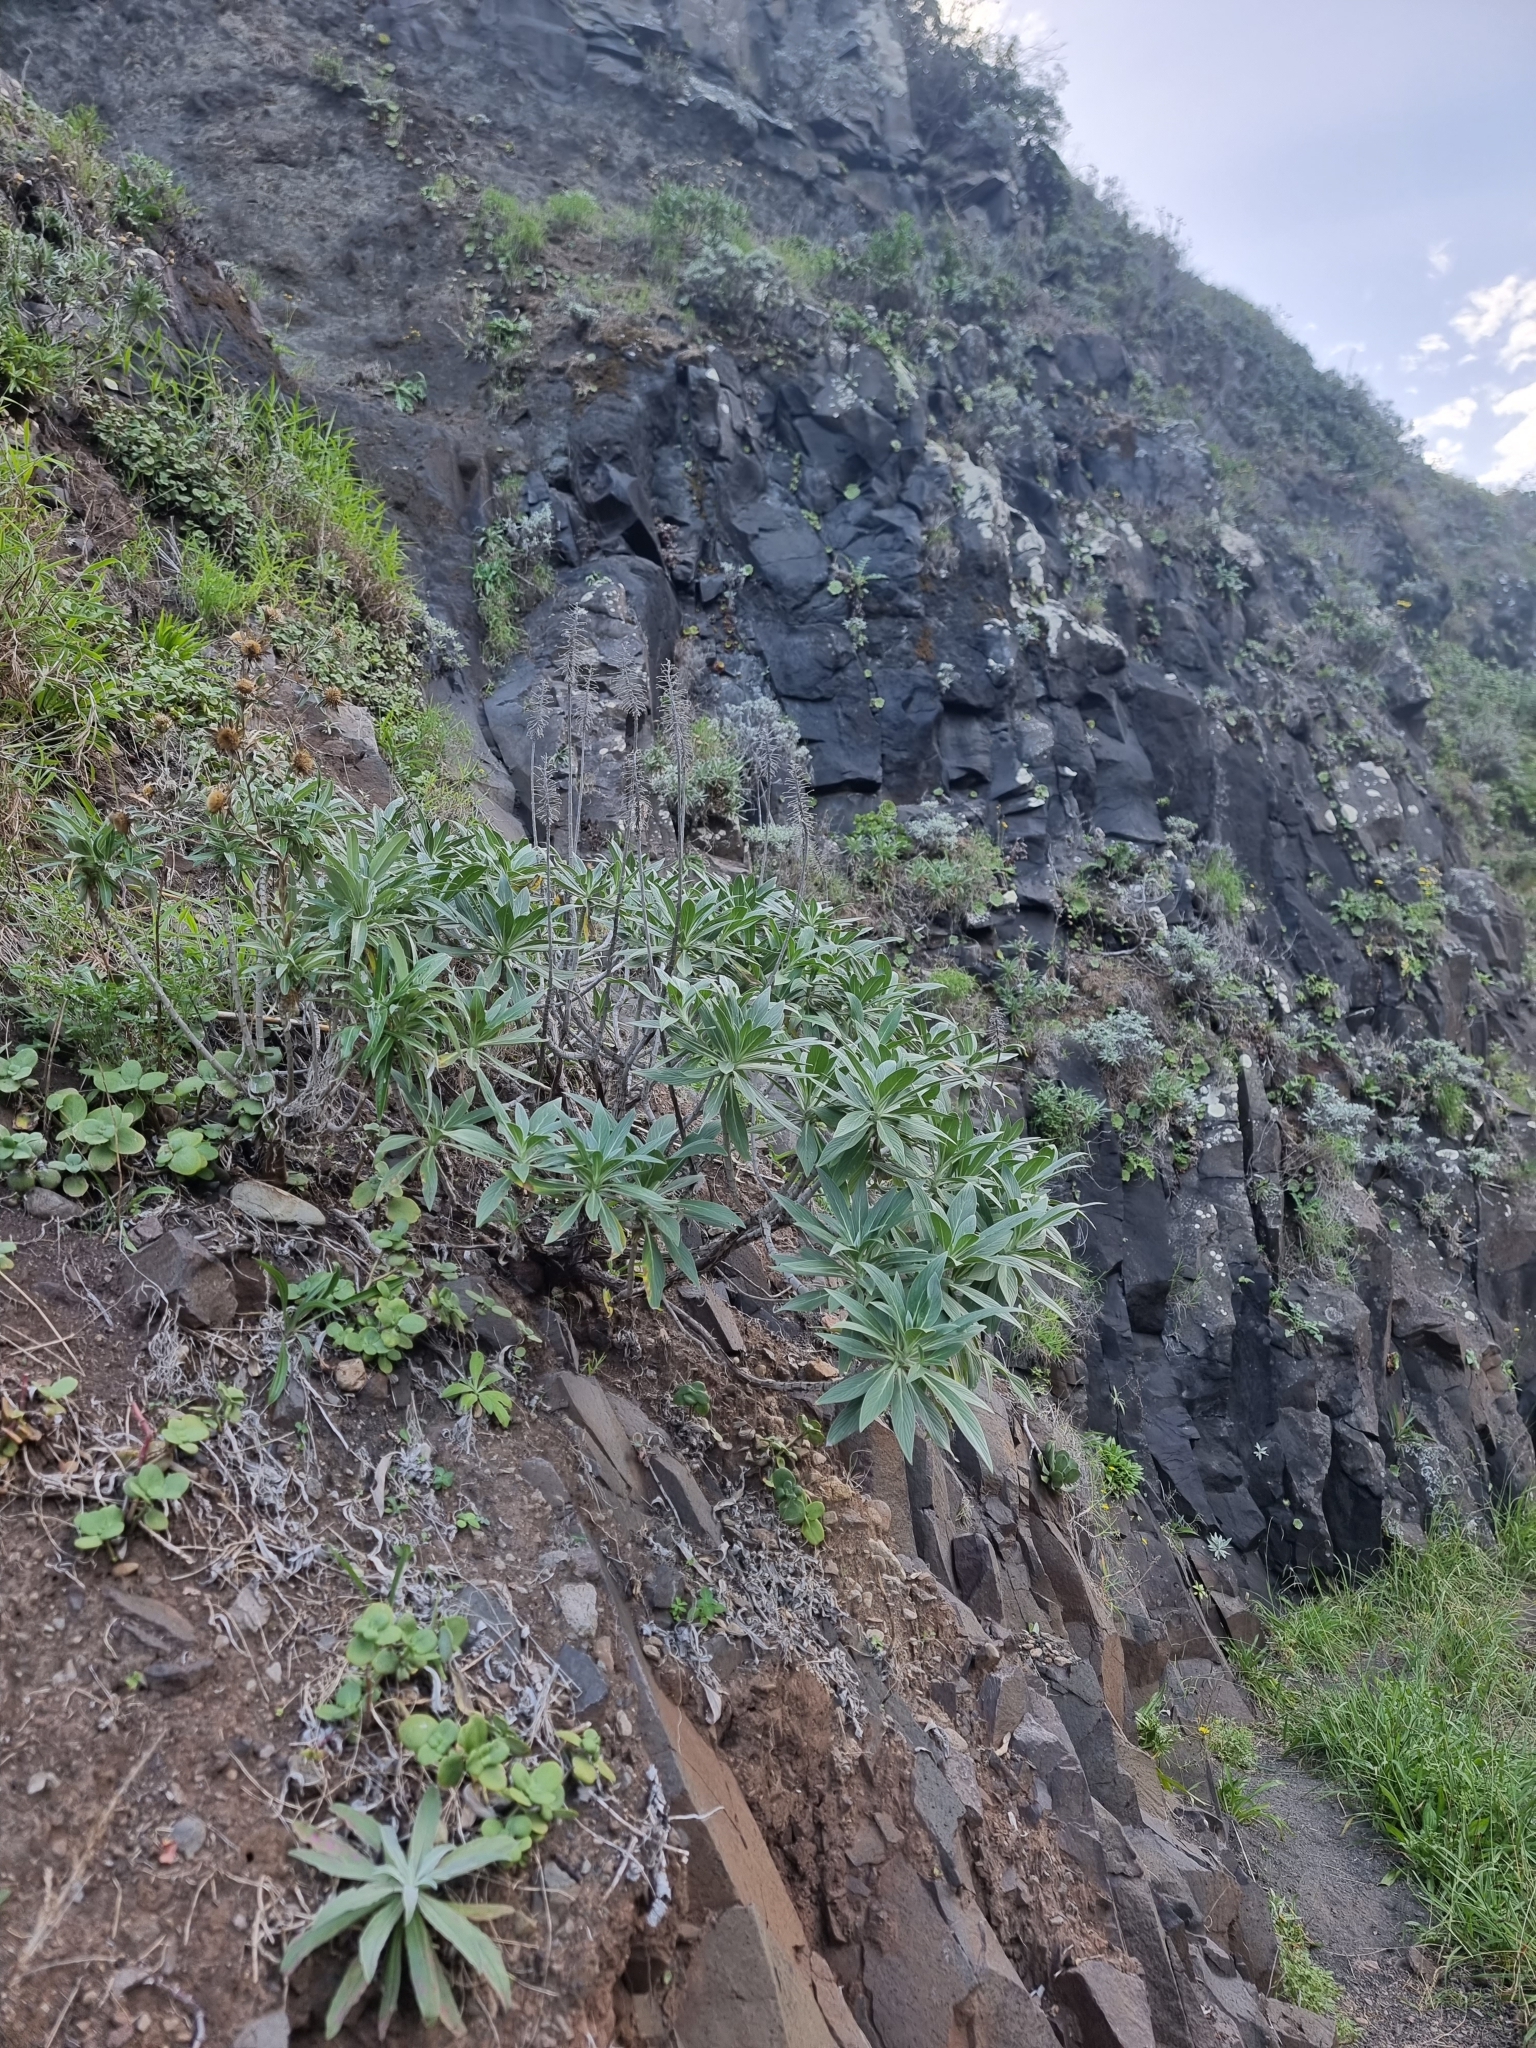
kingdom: Plantae
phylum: Tracheophyta
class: Magnoliopsida
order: Boraginales
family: Boraginaceae
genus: Echium
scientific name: Echium nervosum
